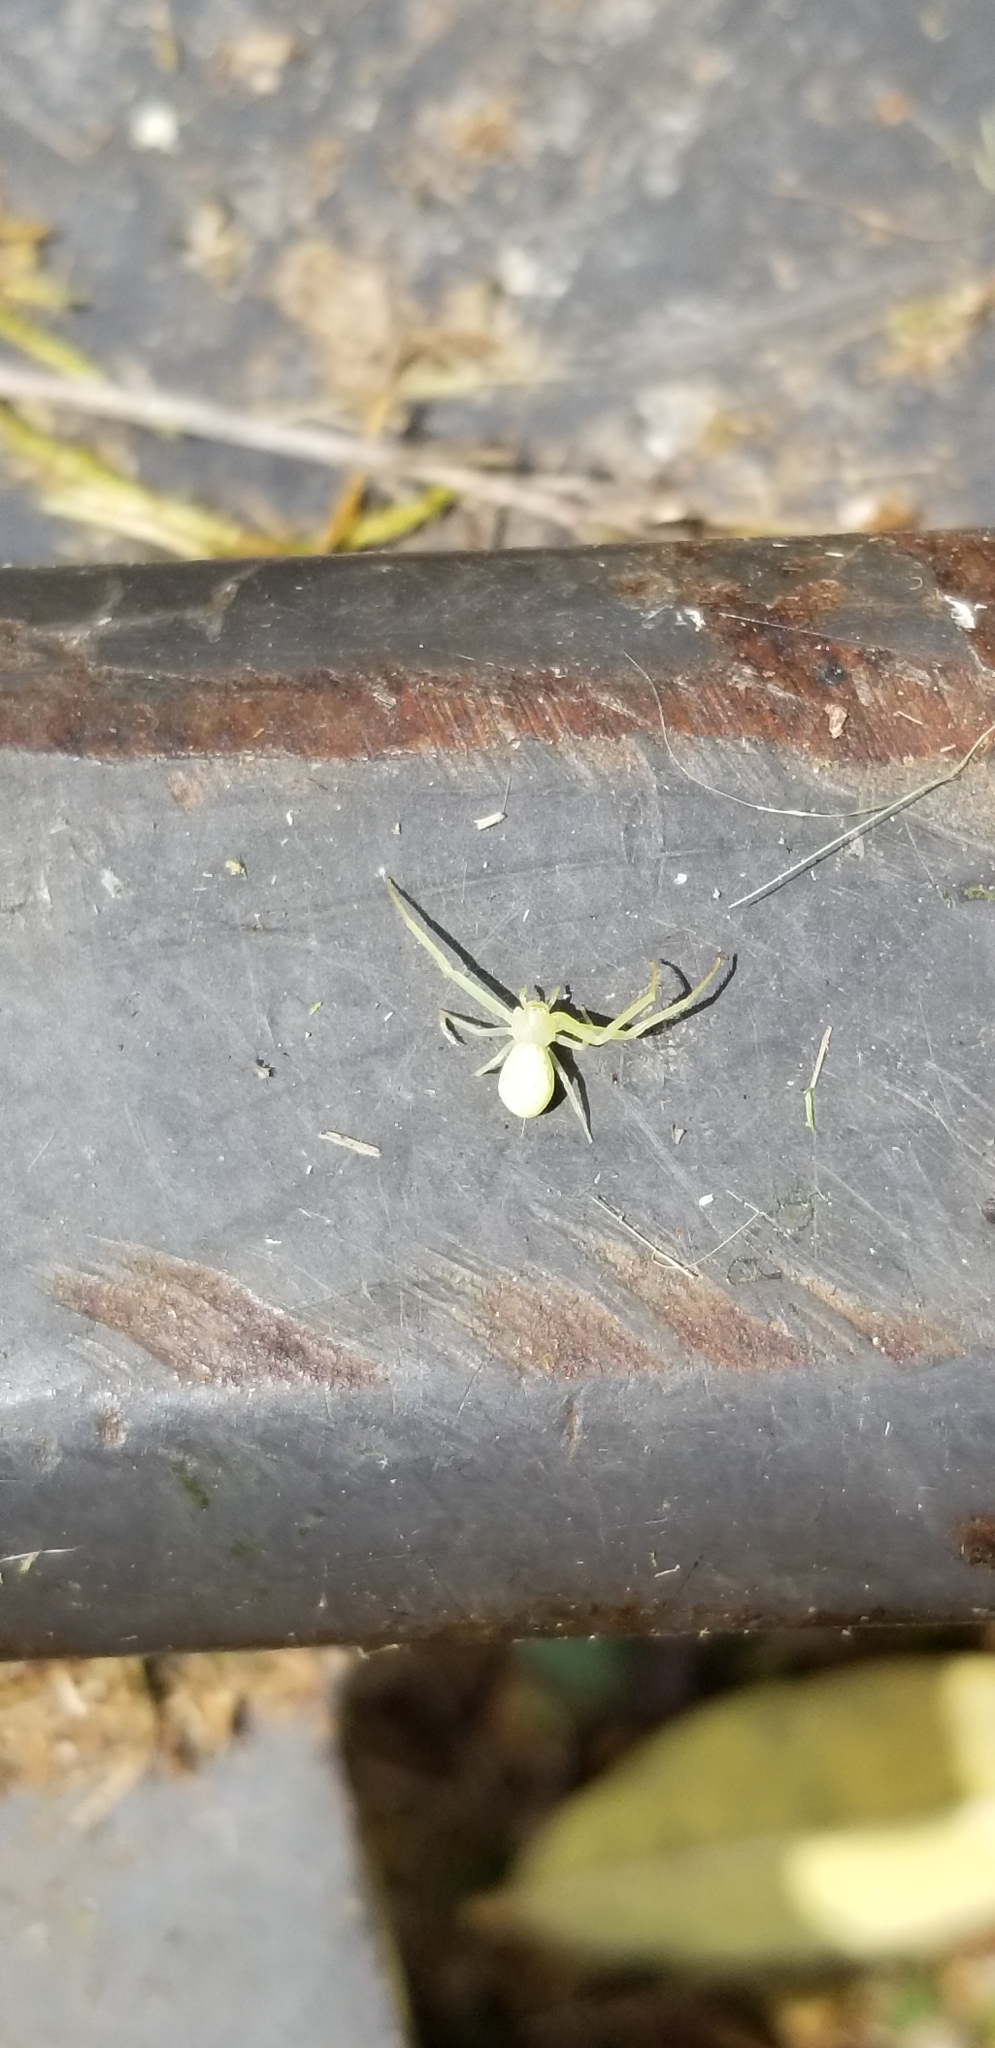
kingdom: Animalia
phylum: Arthropoda
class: Arachnida
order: Araneae
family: Thomisidae
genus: Misumessus
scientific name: Misumessus oblongus
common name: American green crab spider
